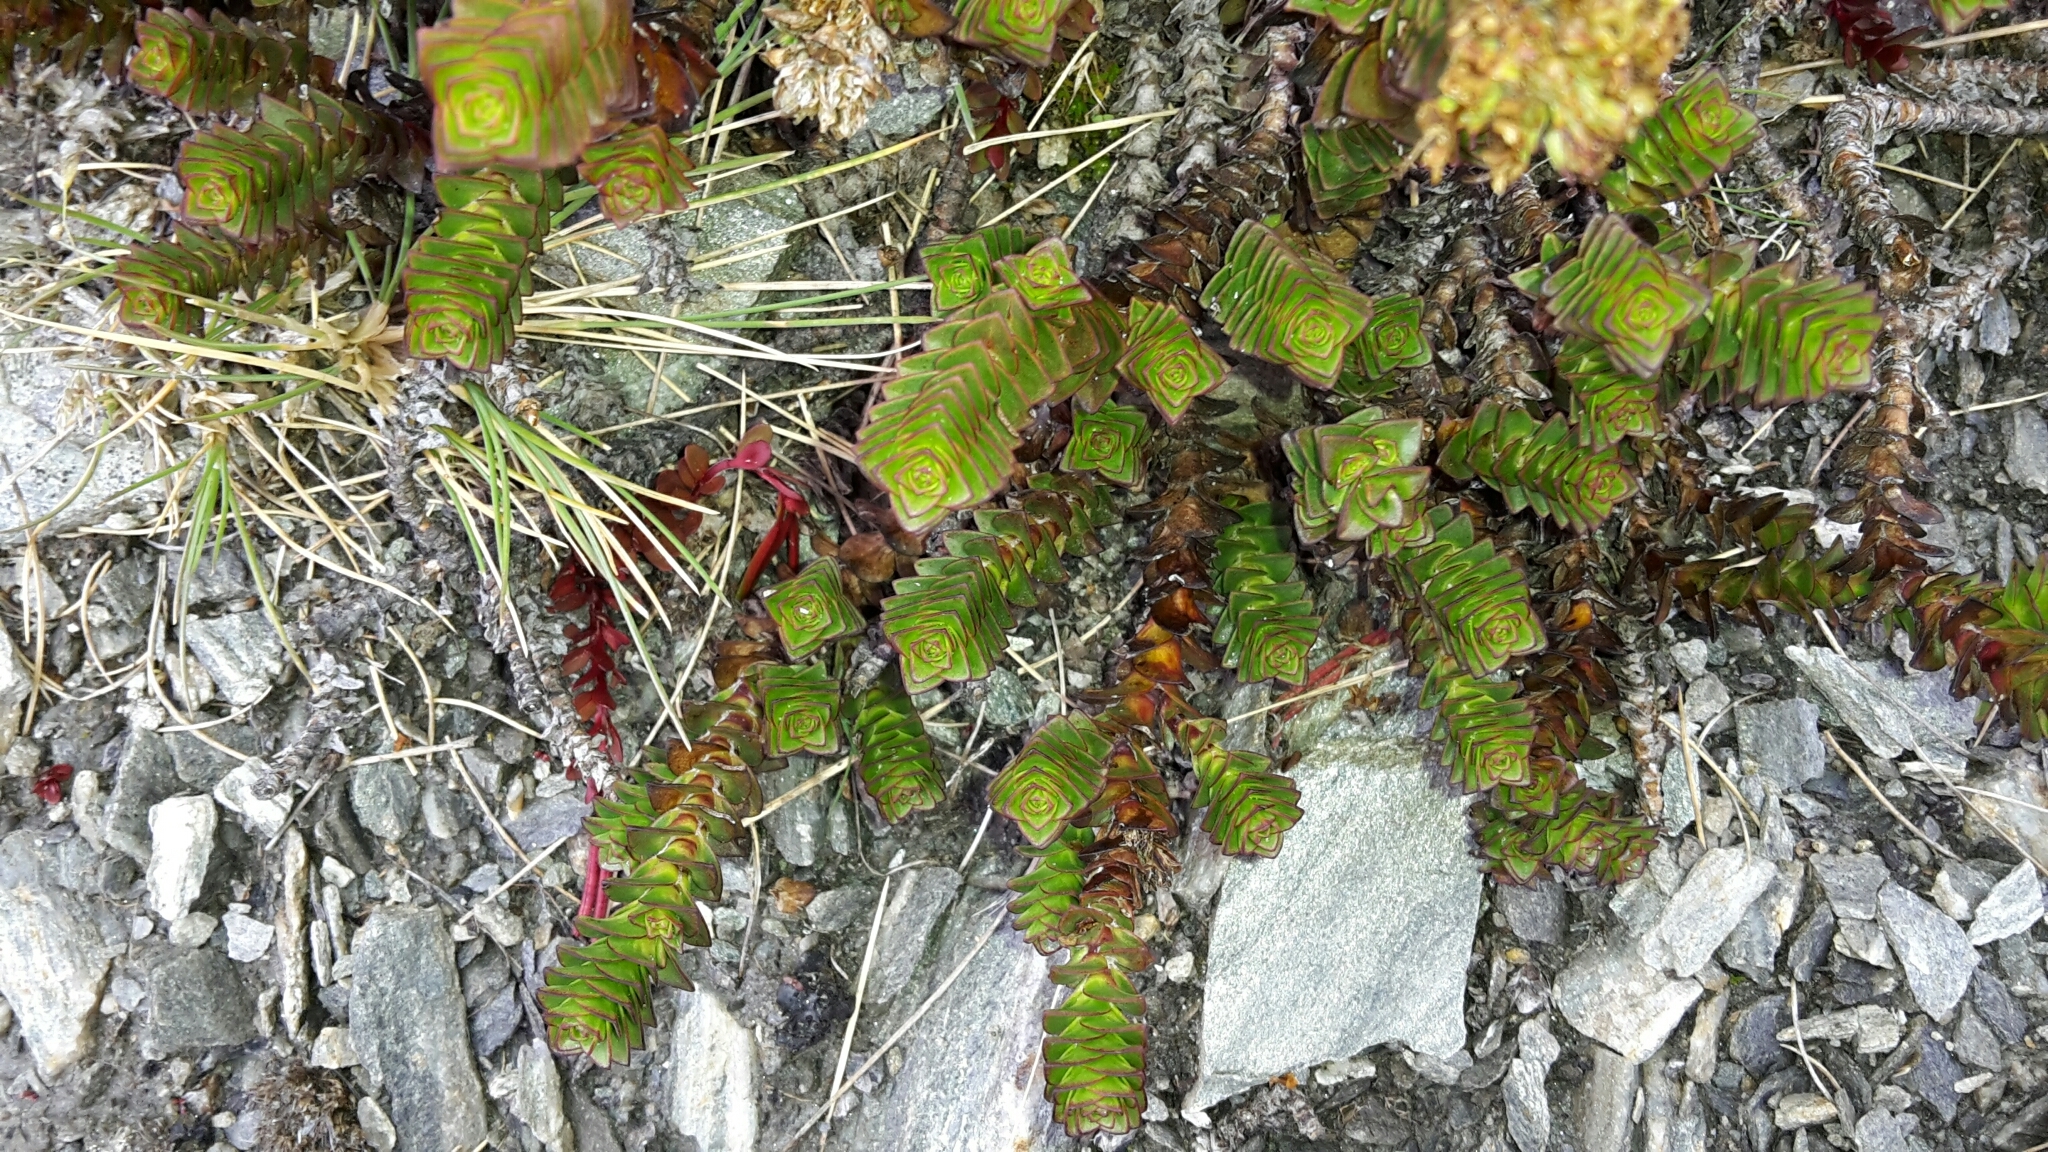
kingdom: Plantae
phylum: Tracheophyta
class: Magnoliopsida
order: Lamiales
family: Plantaginaceae
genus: Veronica
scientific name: Veronica epacridea
